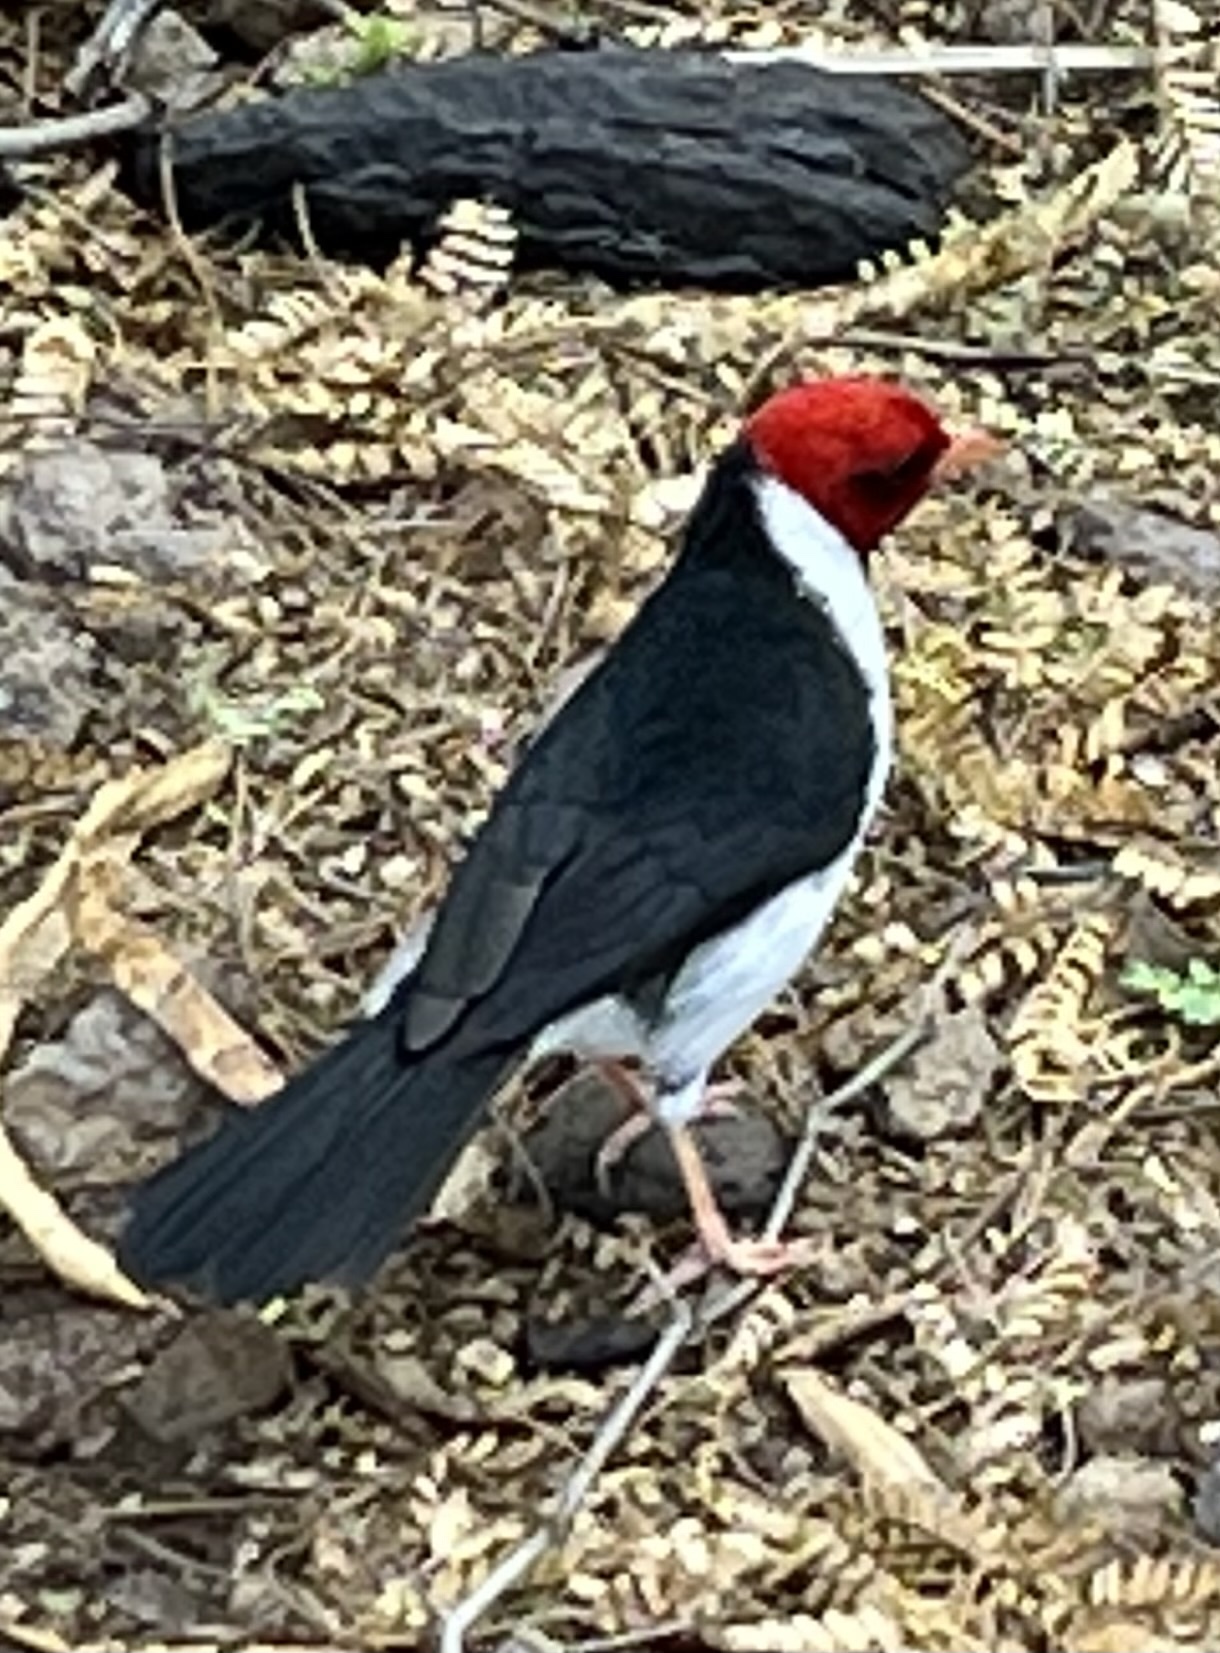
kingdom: Animalia
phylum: Chordata
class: Aves
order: Passeriformes
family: Thraupidae
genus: Paroaria
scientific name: Paroaria capitata
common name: Yellow-billed cardinal
